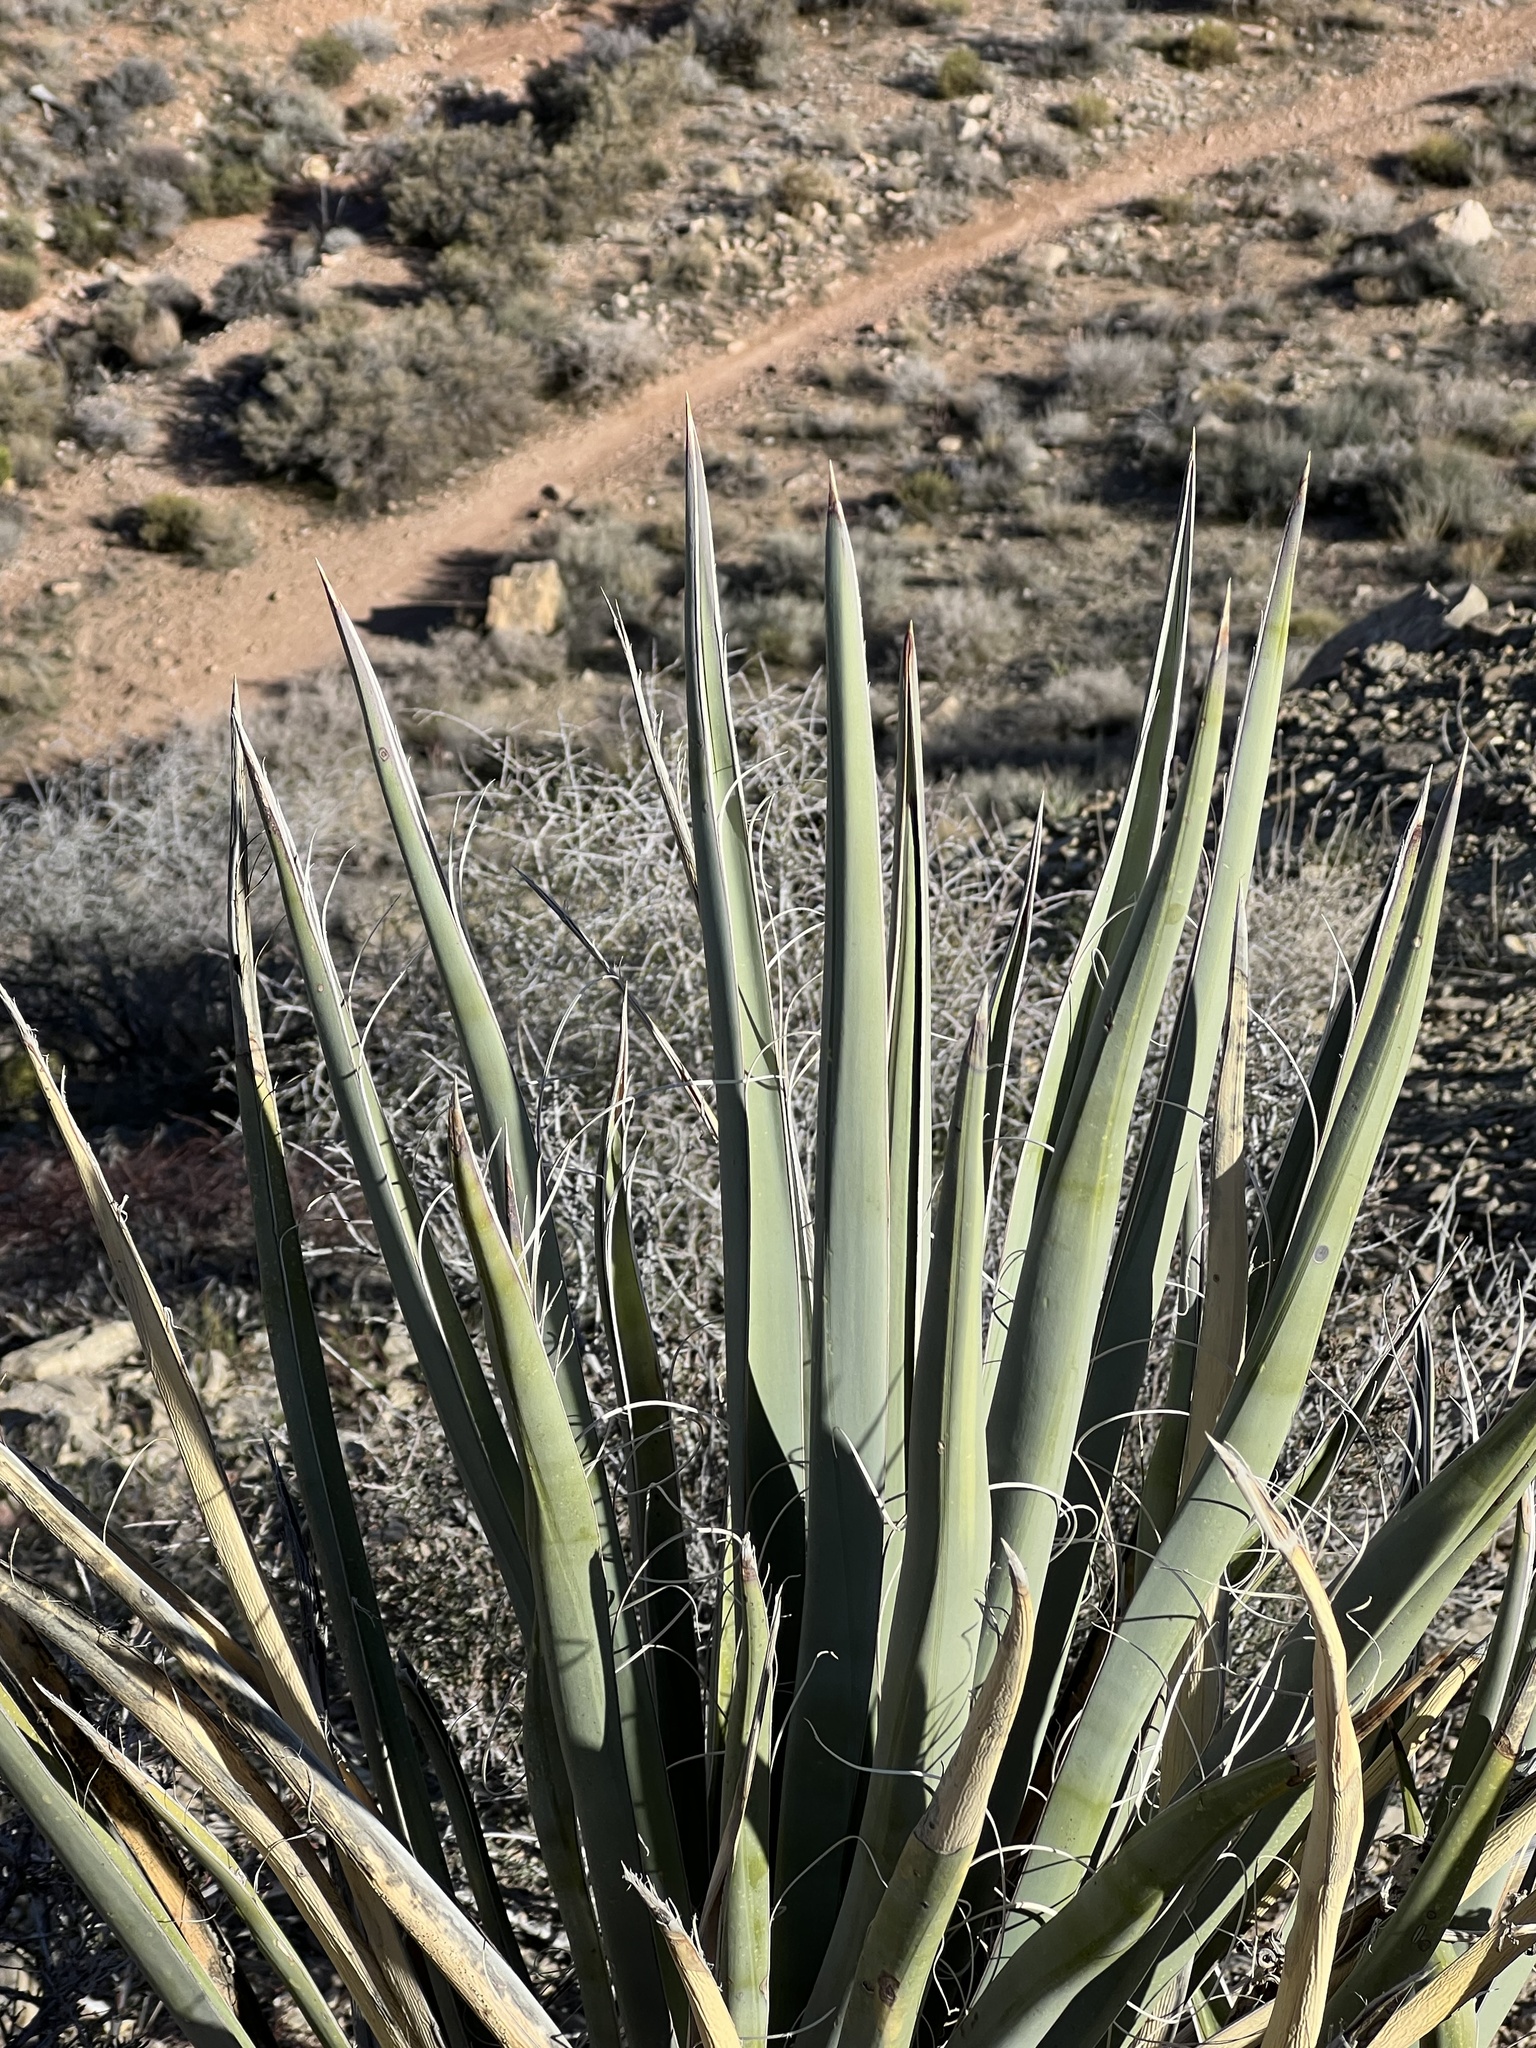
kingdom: Plantae
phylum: Tracheophyta
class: Liliopsida
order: Asparagales
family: Asparagaceae
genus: Yucca
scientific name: Yucca baccata
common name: Banana yucca
